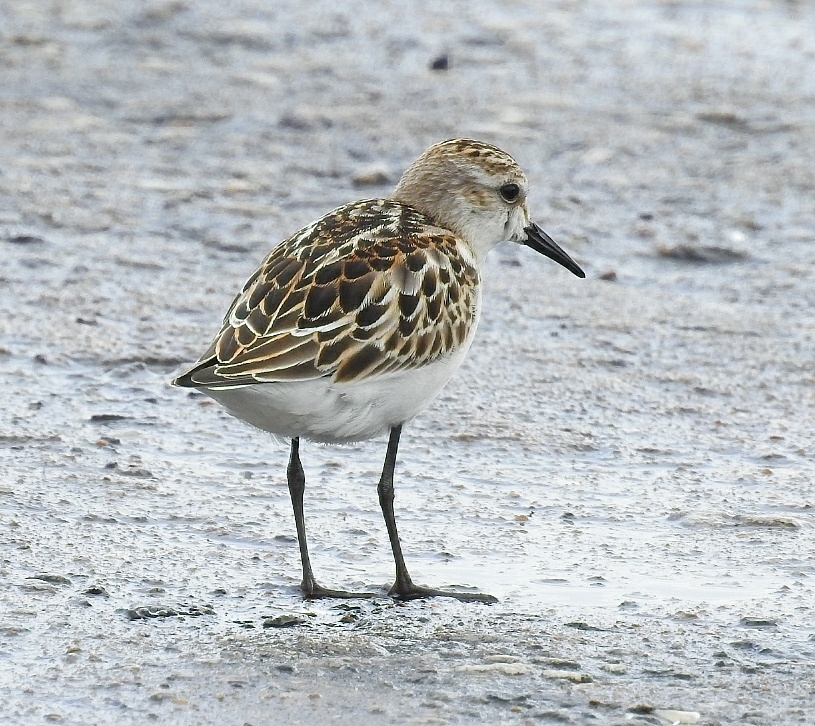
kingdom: Animalia
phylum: Chordata
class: Aves
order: Charadriiformes
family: Scolopacidae
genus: Calidris
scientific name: Calidris minuta
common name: Little stint
